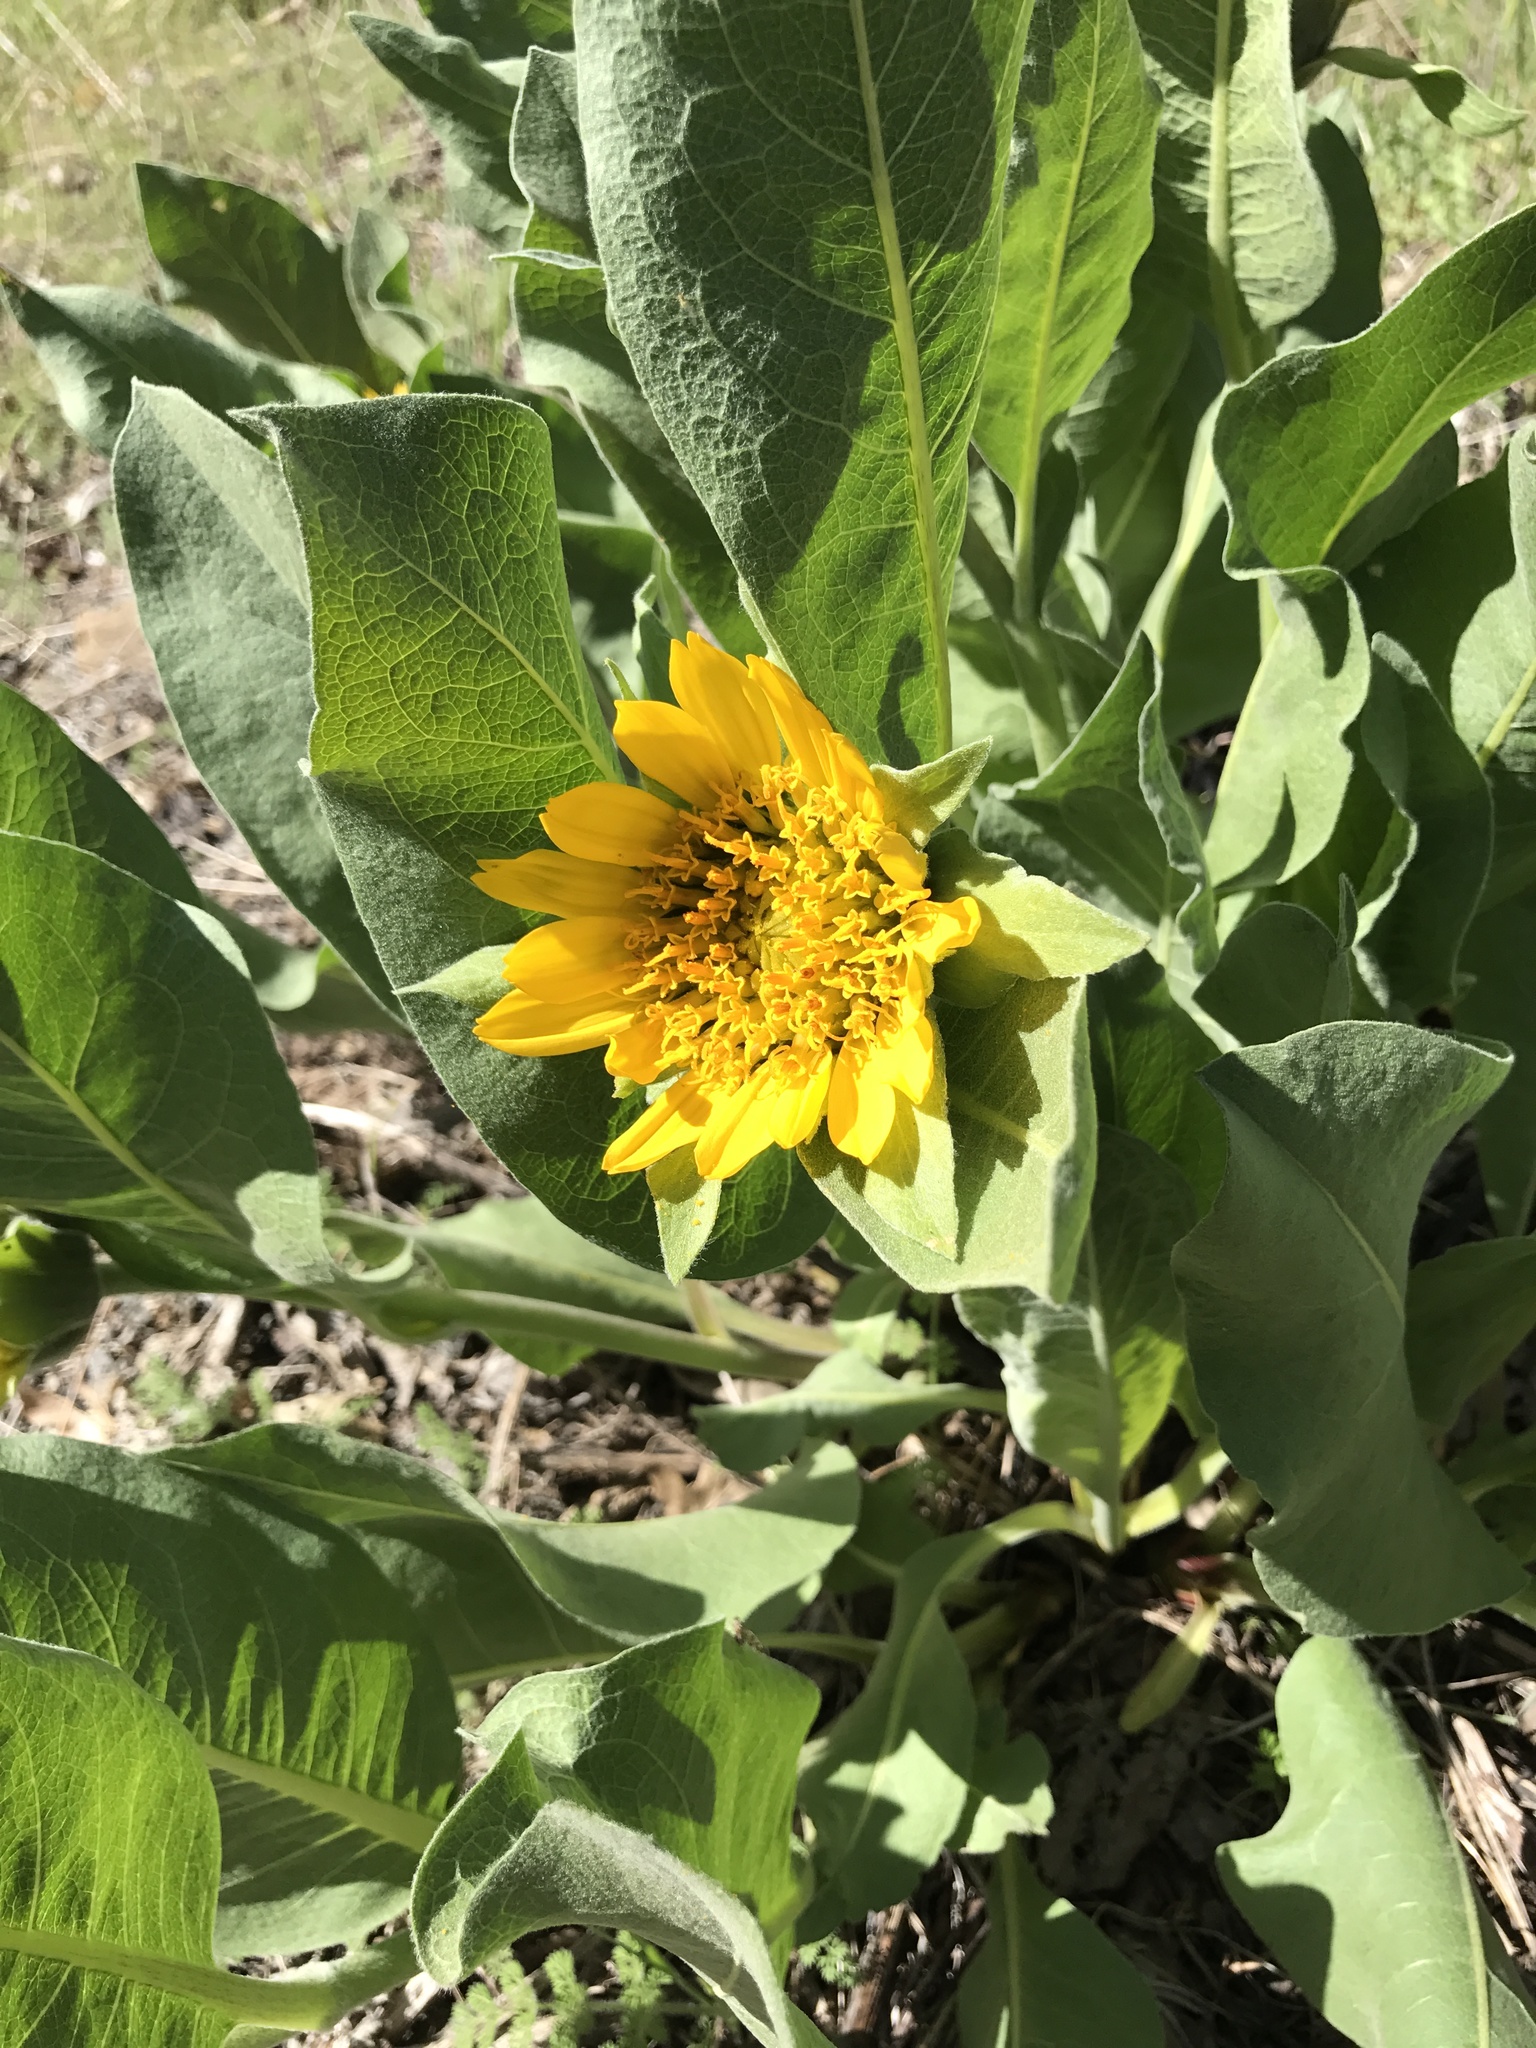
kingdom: Plantae
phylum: Tracheophyta
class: Magnoliopsida
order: Asterales
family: Asteraceae
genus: Wyethia
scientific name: Wyethia helenioides
